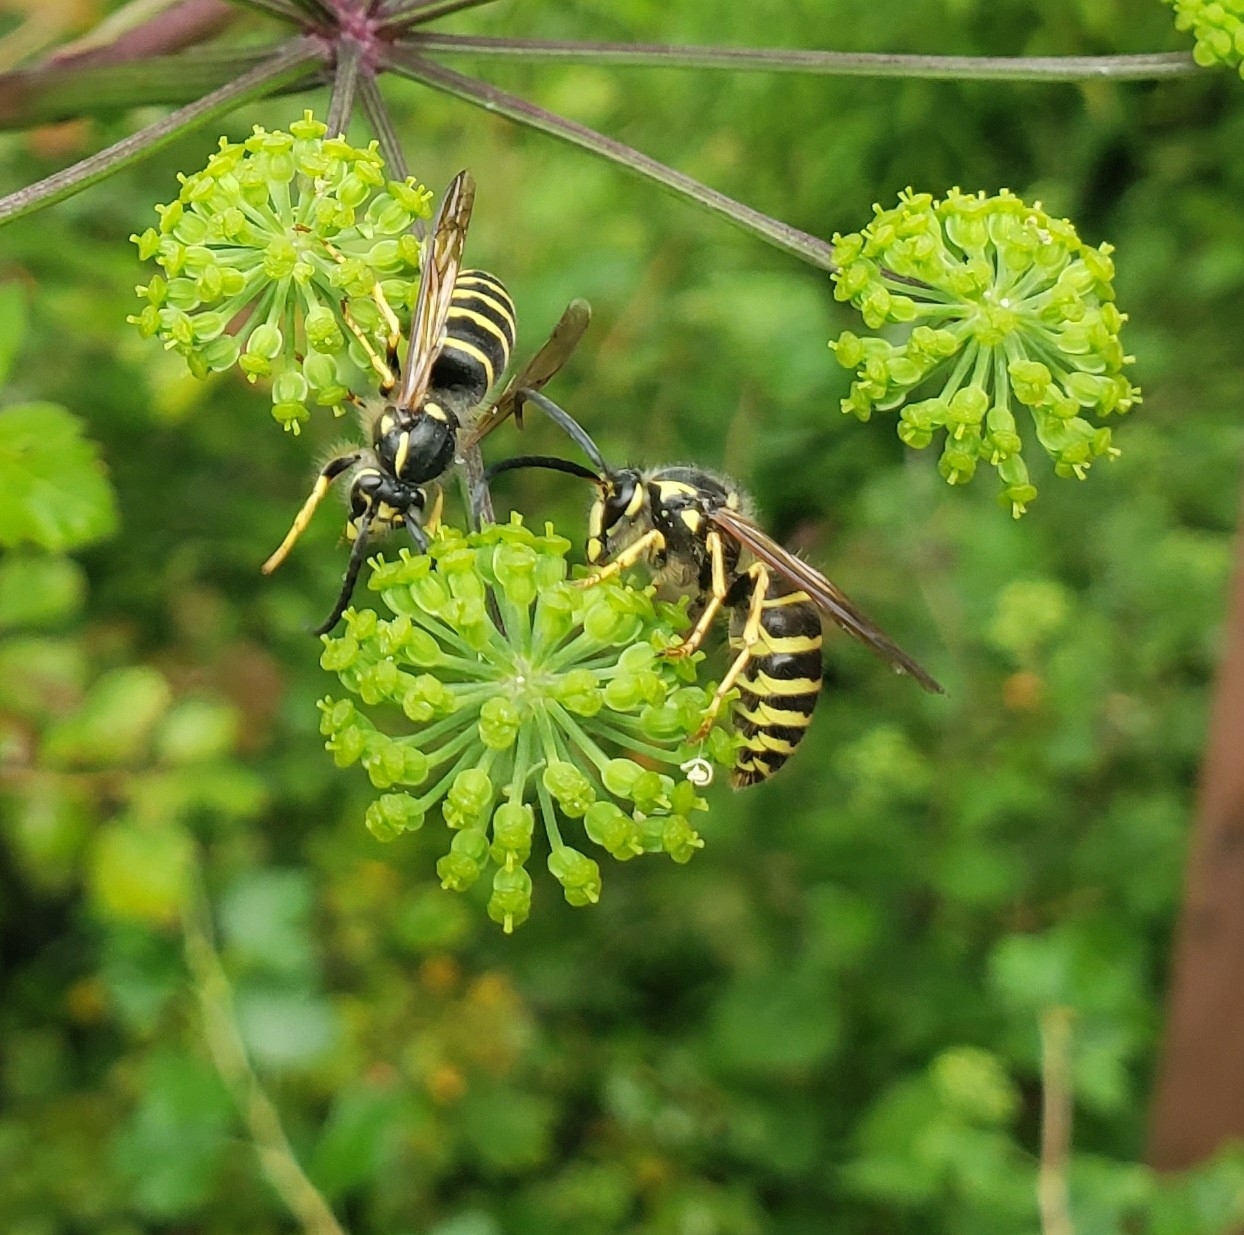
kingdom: Animalia
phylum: Arthropoda
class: Insecta
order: Hymenoptera
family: Vespidae
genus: Dolichovespula
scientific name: Dolichovespula norvegicoides
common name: Northern aerial yellowjacket
